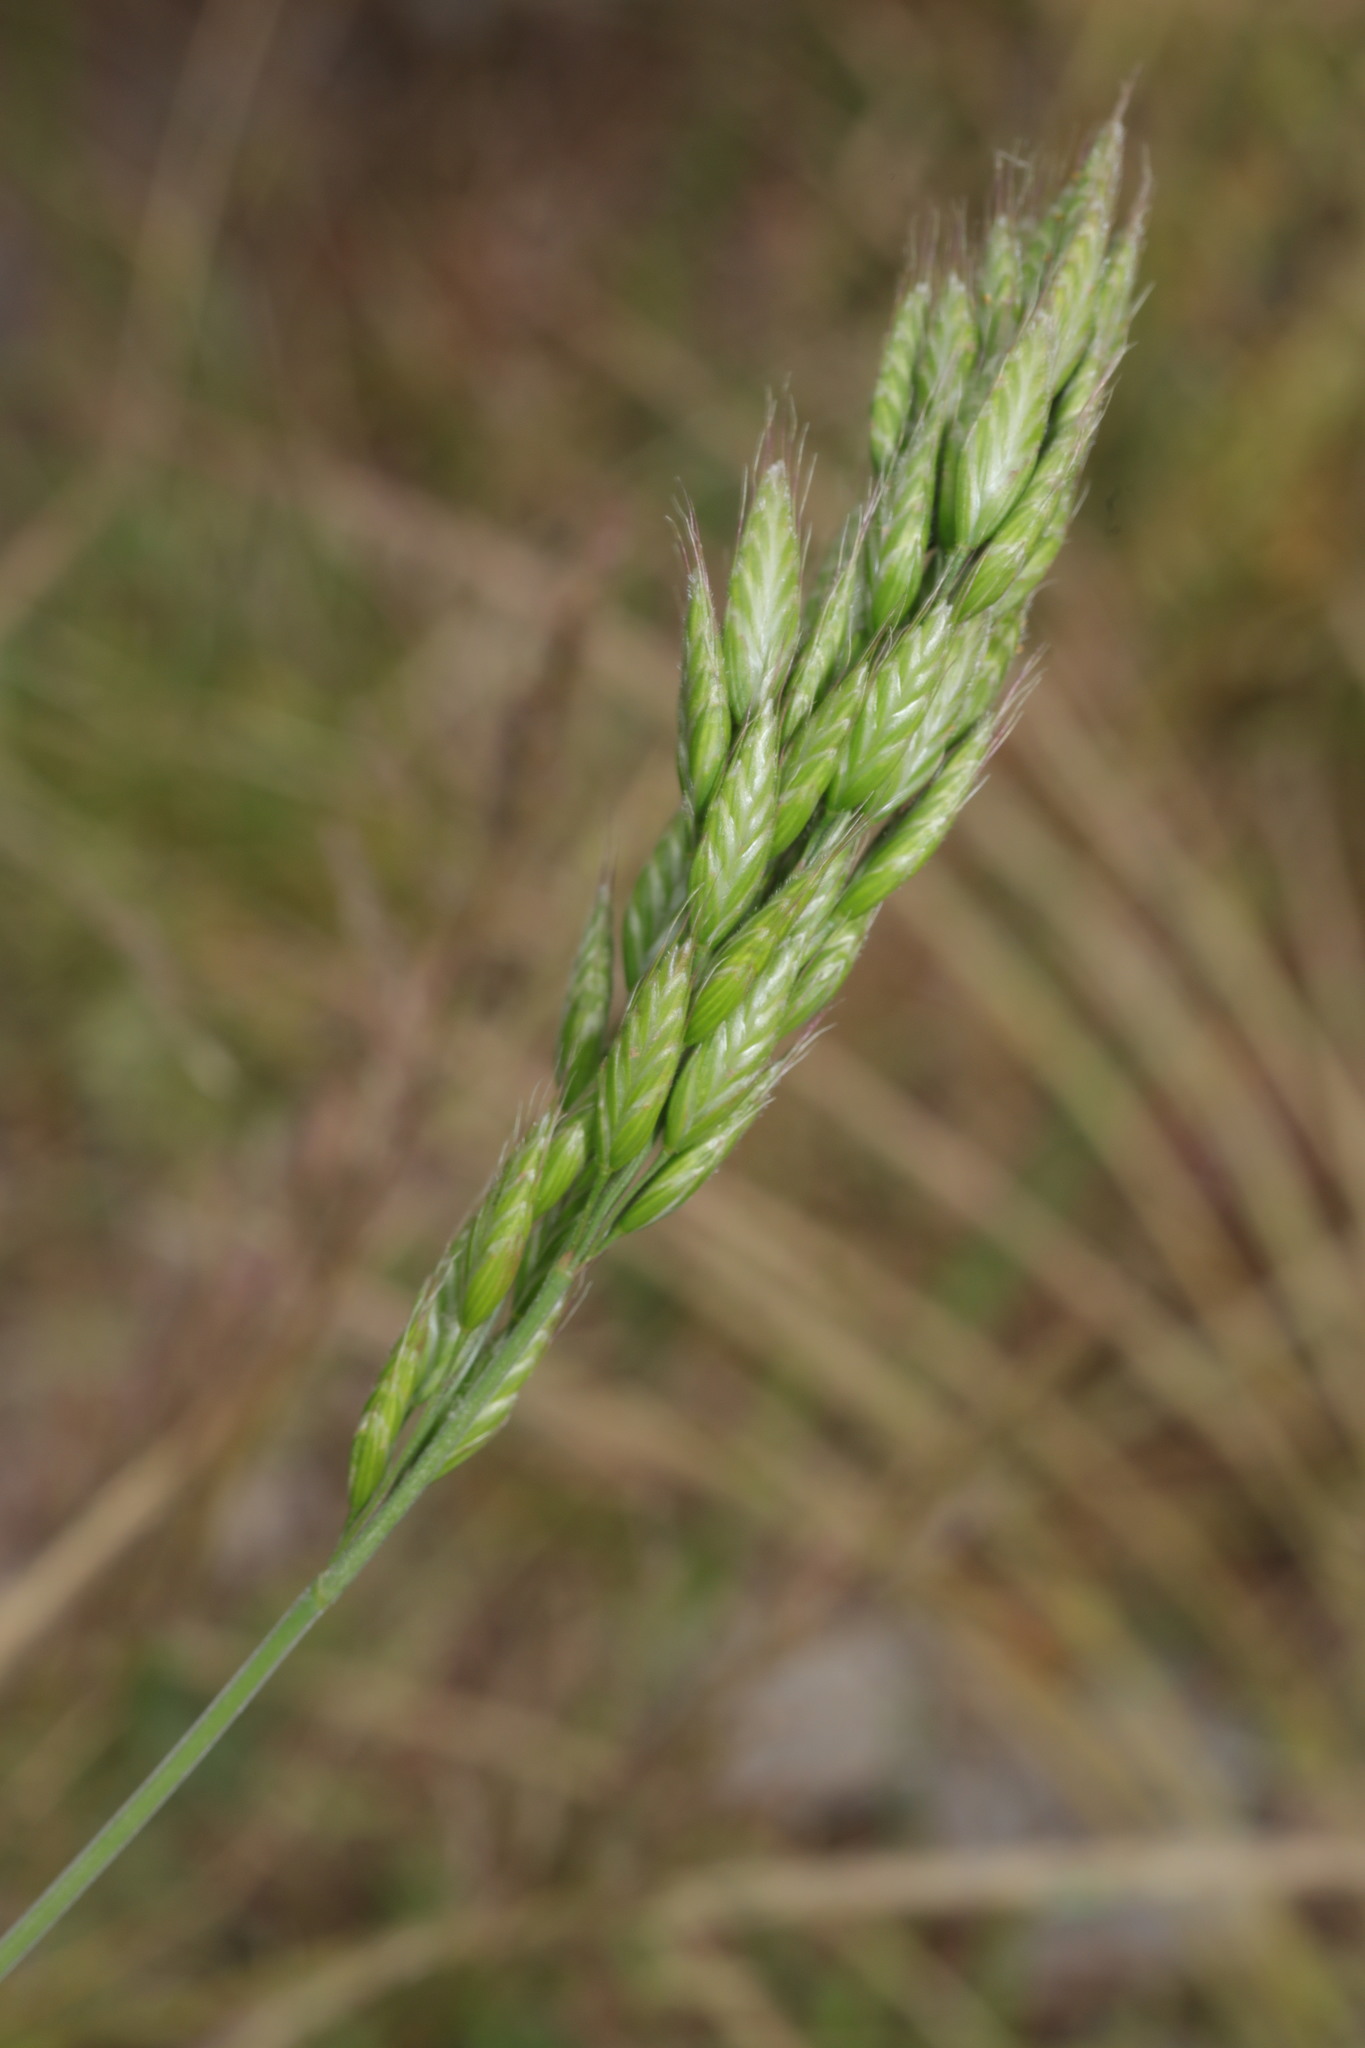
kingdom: Plantae
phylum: Tracheophyta
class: Liliopsida
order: Poales
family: Poaceae
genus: Bromus
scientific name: Bromus hordeaceus
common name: Soft brome
